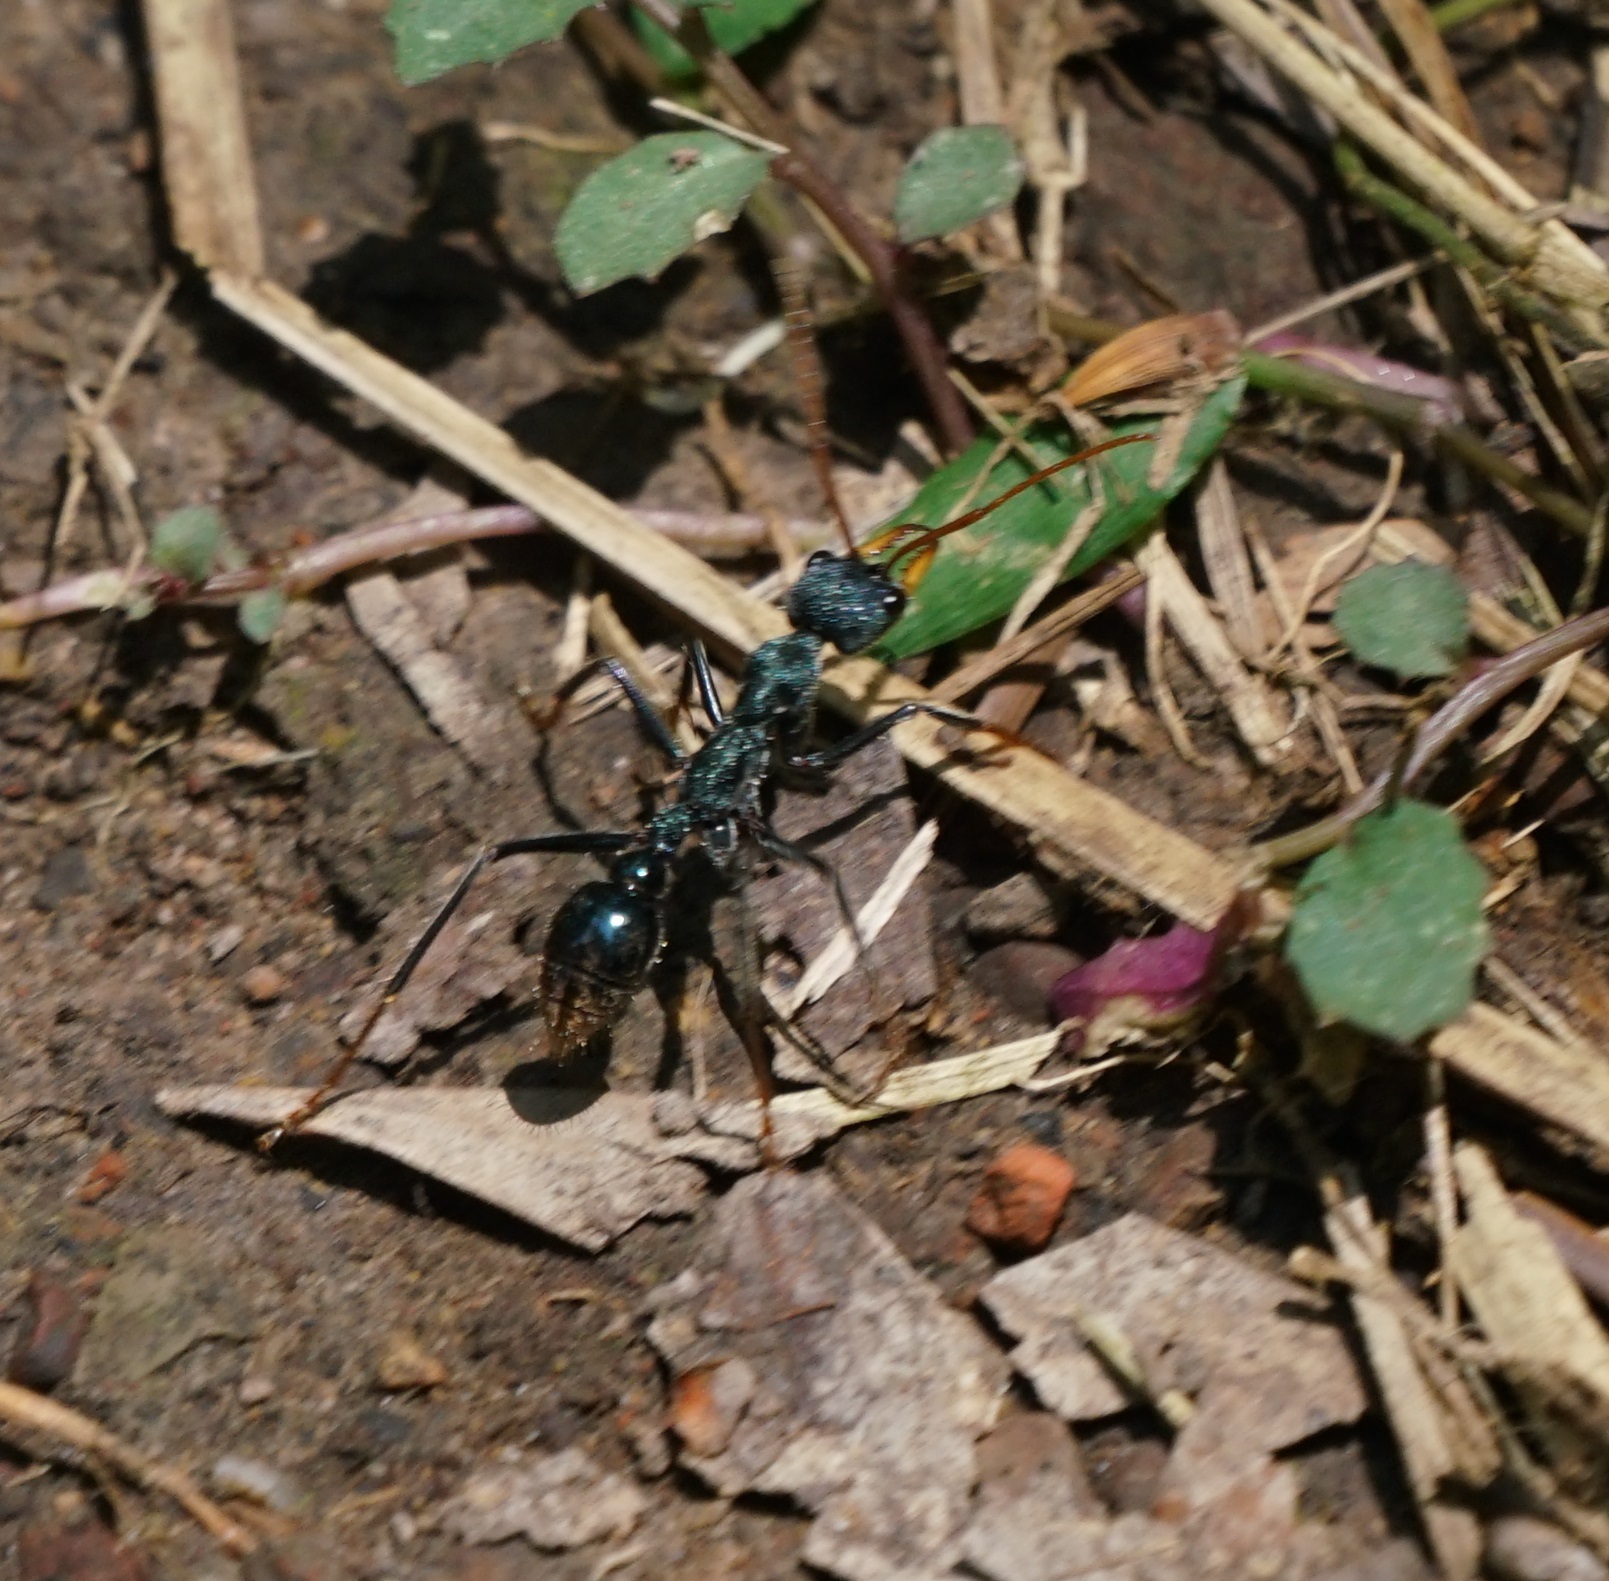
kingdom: Animalia
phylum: Arthropoda
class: Insecta
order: Hymenoptera
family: Formicidae
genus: Myrmecia
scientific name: Myrmecia tarsata
